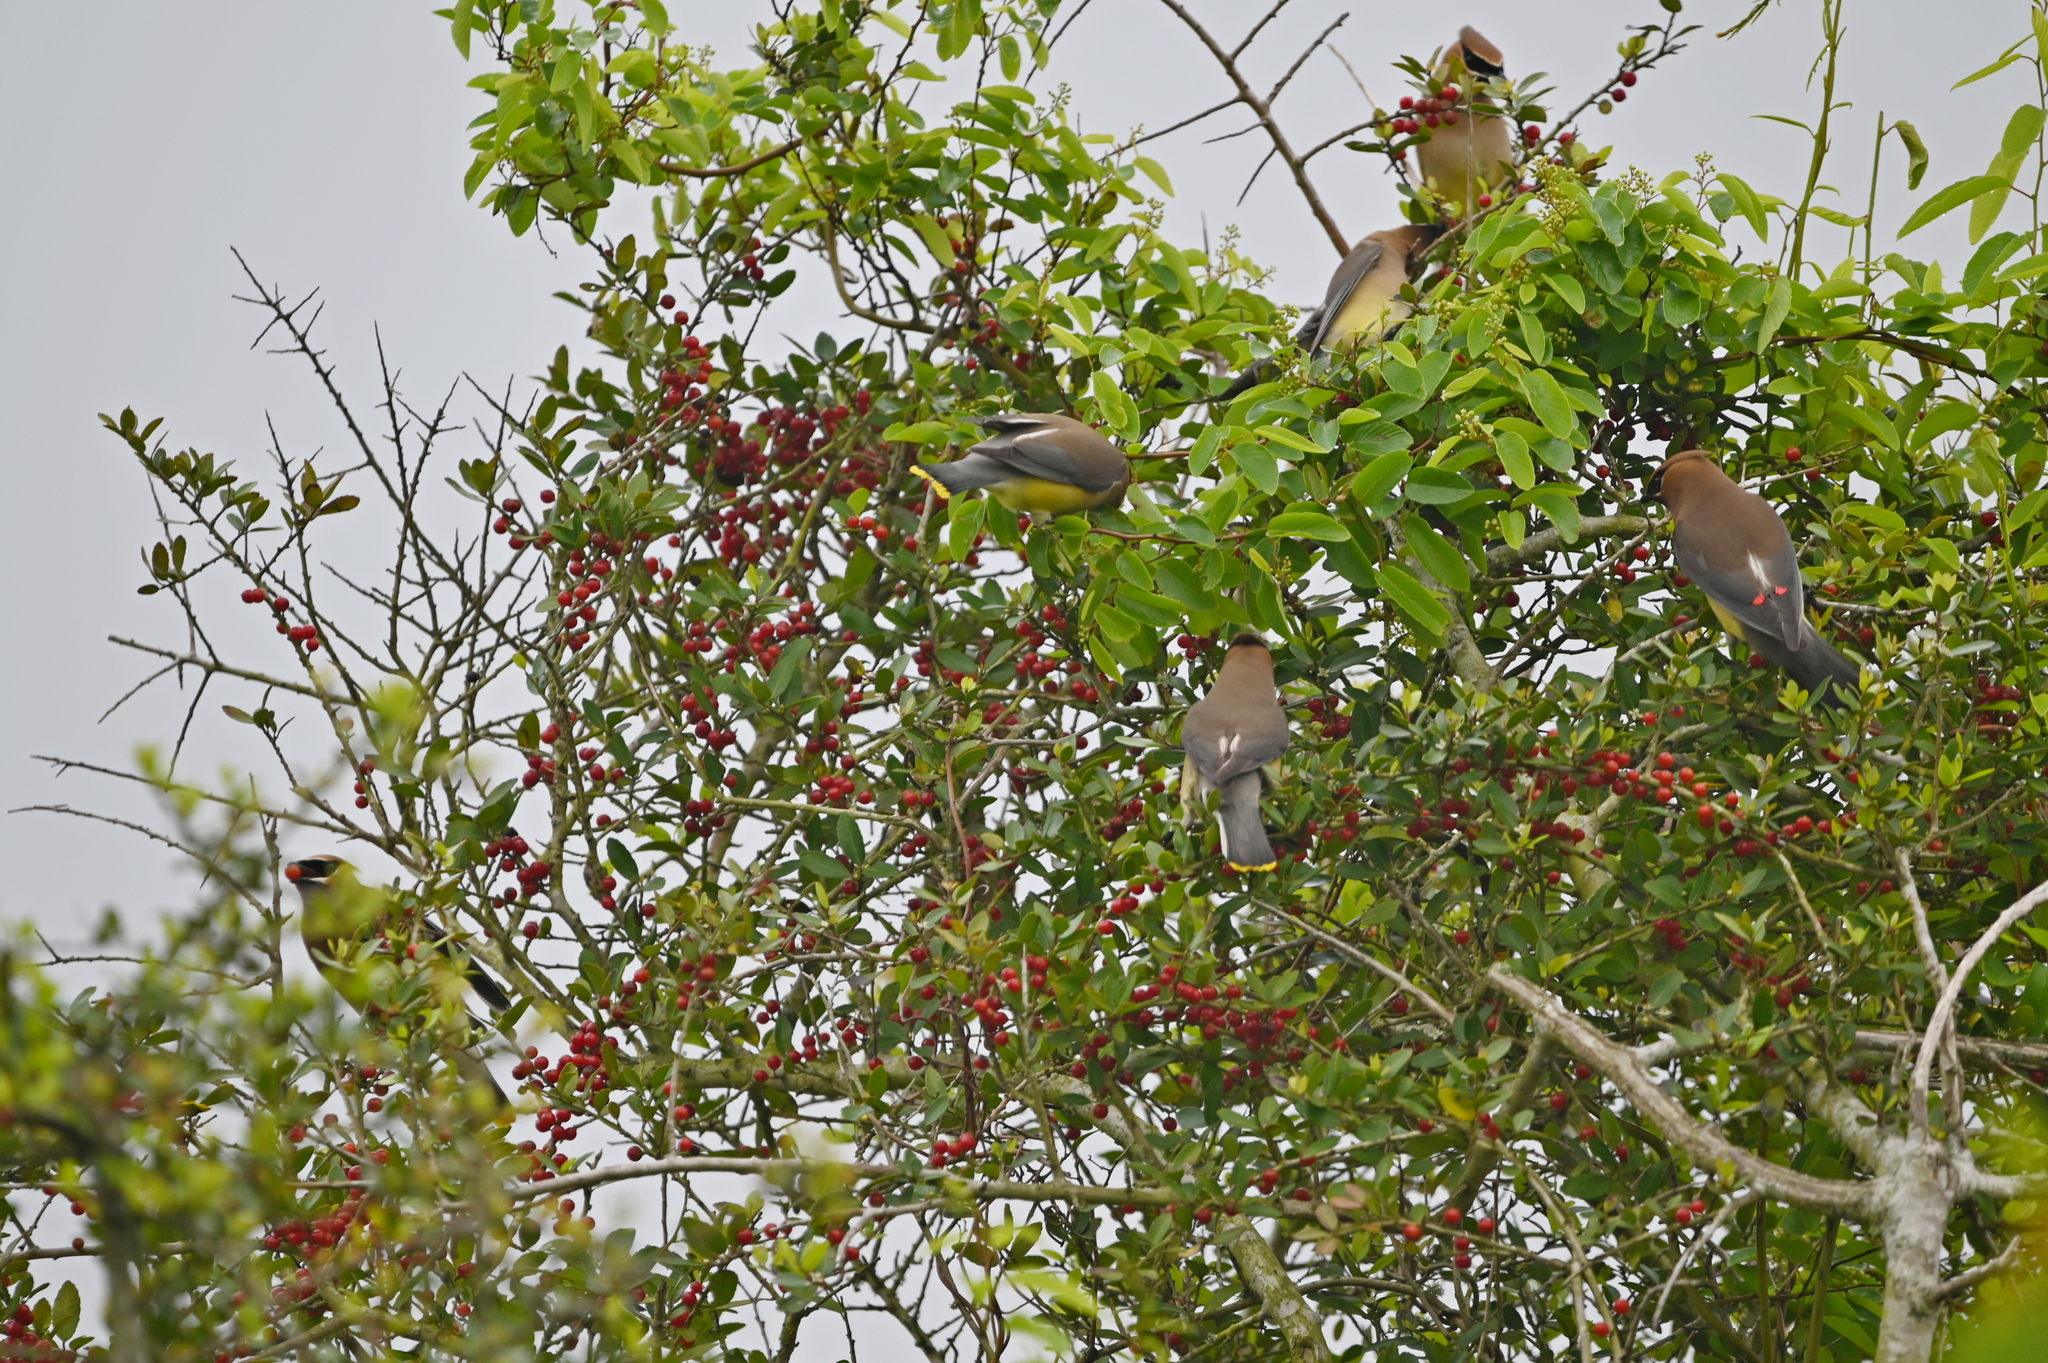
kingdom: Animalia
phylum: Chordata
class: Aves
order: Passeriformes
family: Bombycillidae
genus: Bombycilla
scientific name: Bombycilla cedrorum
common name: Cedar waxwing
